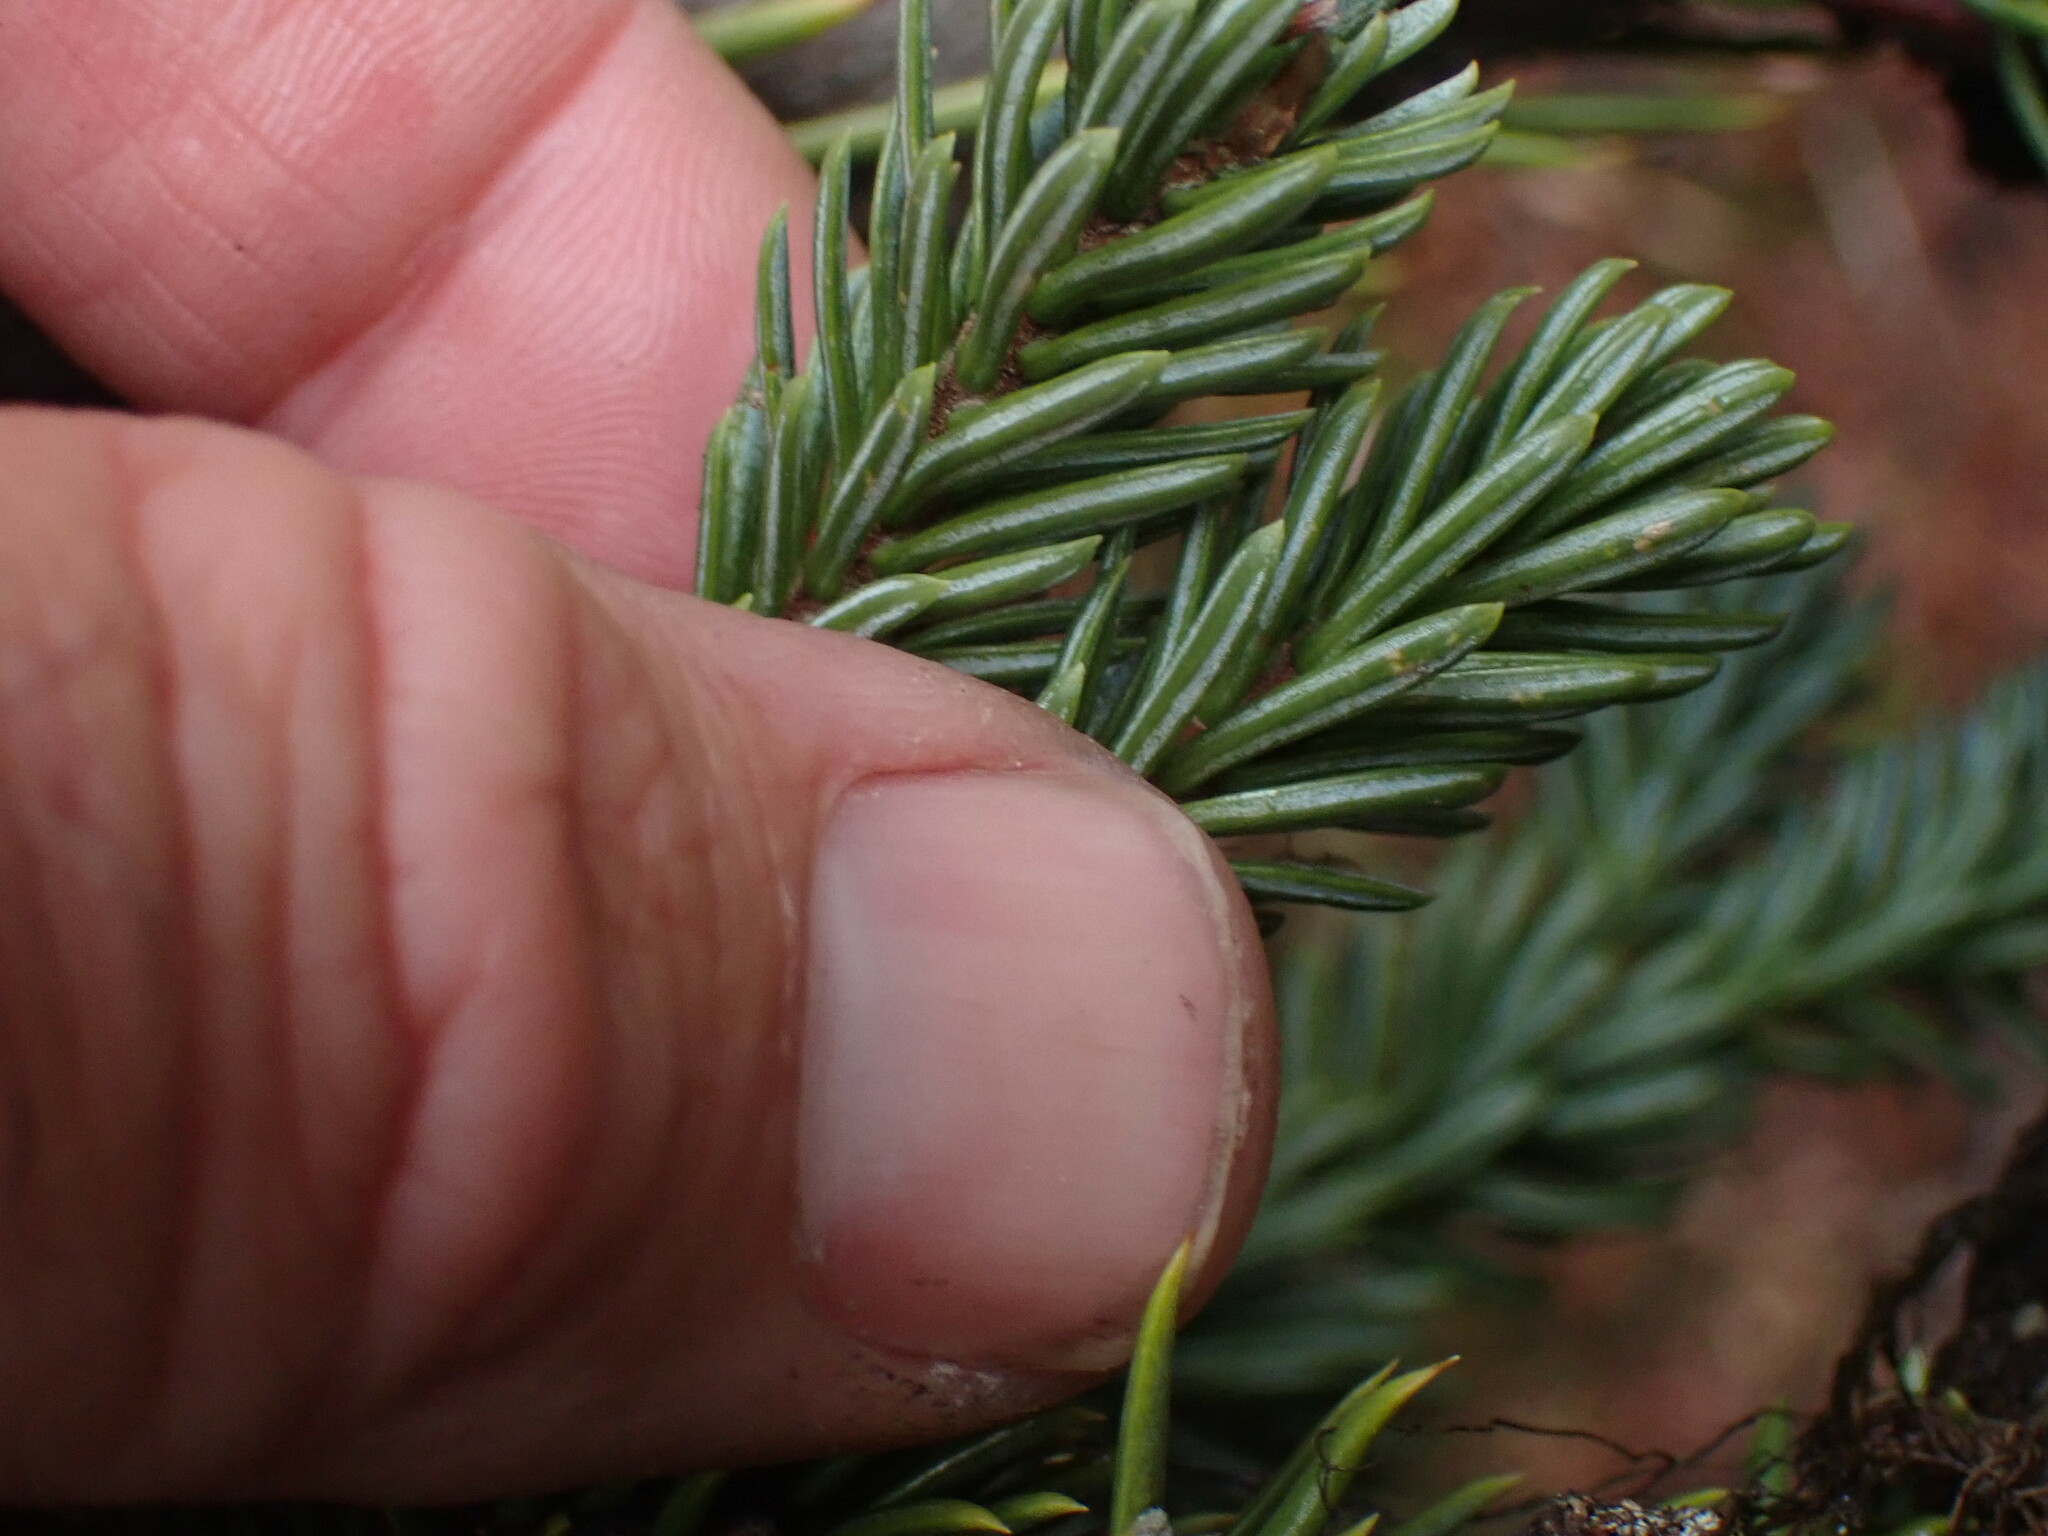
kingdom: Plantae
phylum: Tracheophyta
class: Pinopsida
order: Pinales
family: Pinaceae
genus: Abies
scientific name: Abies lasiocarpa
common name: Subalpine fir
